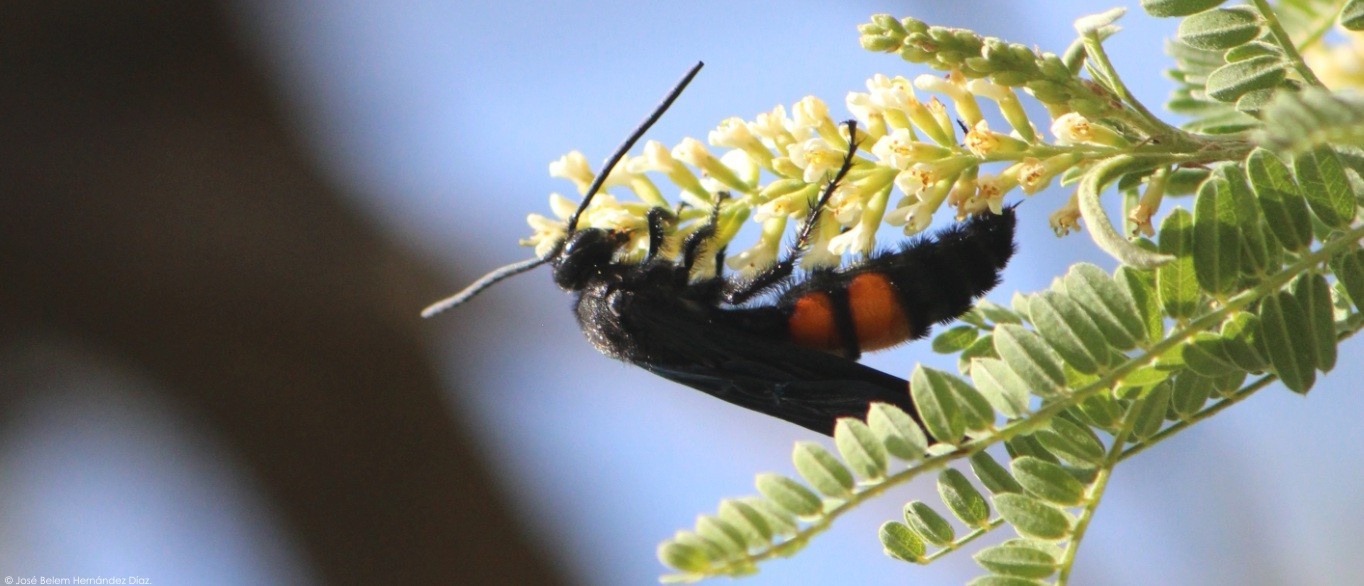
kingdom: Animalia
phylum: Arthropoda
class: Insecta
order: Hymenoptera
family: Scoliidae
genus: Pygodasis
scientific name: Pygodasis ephippium
